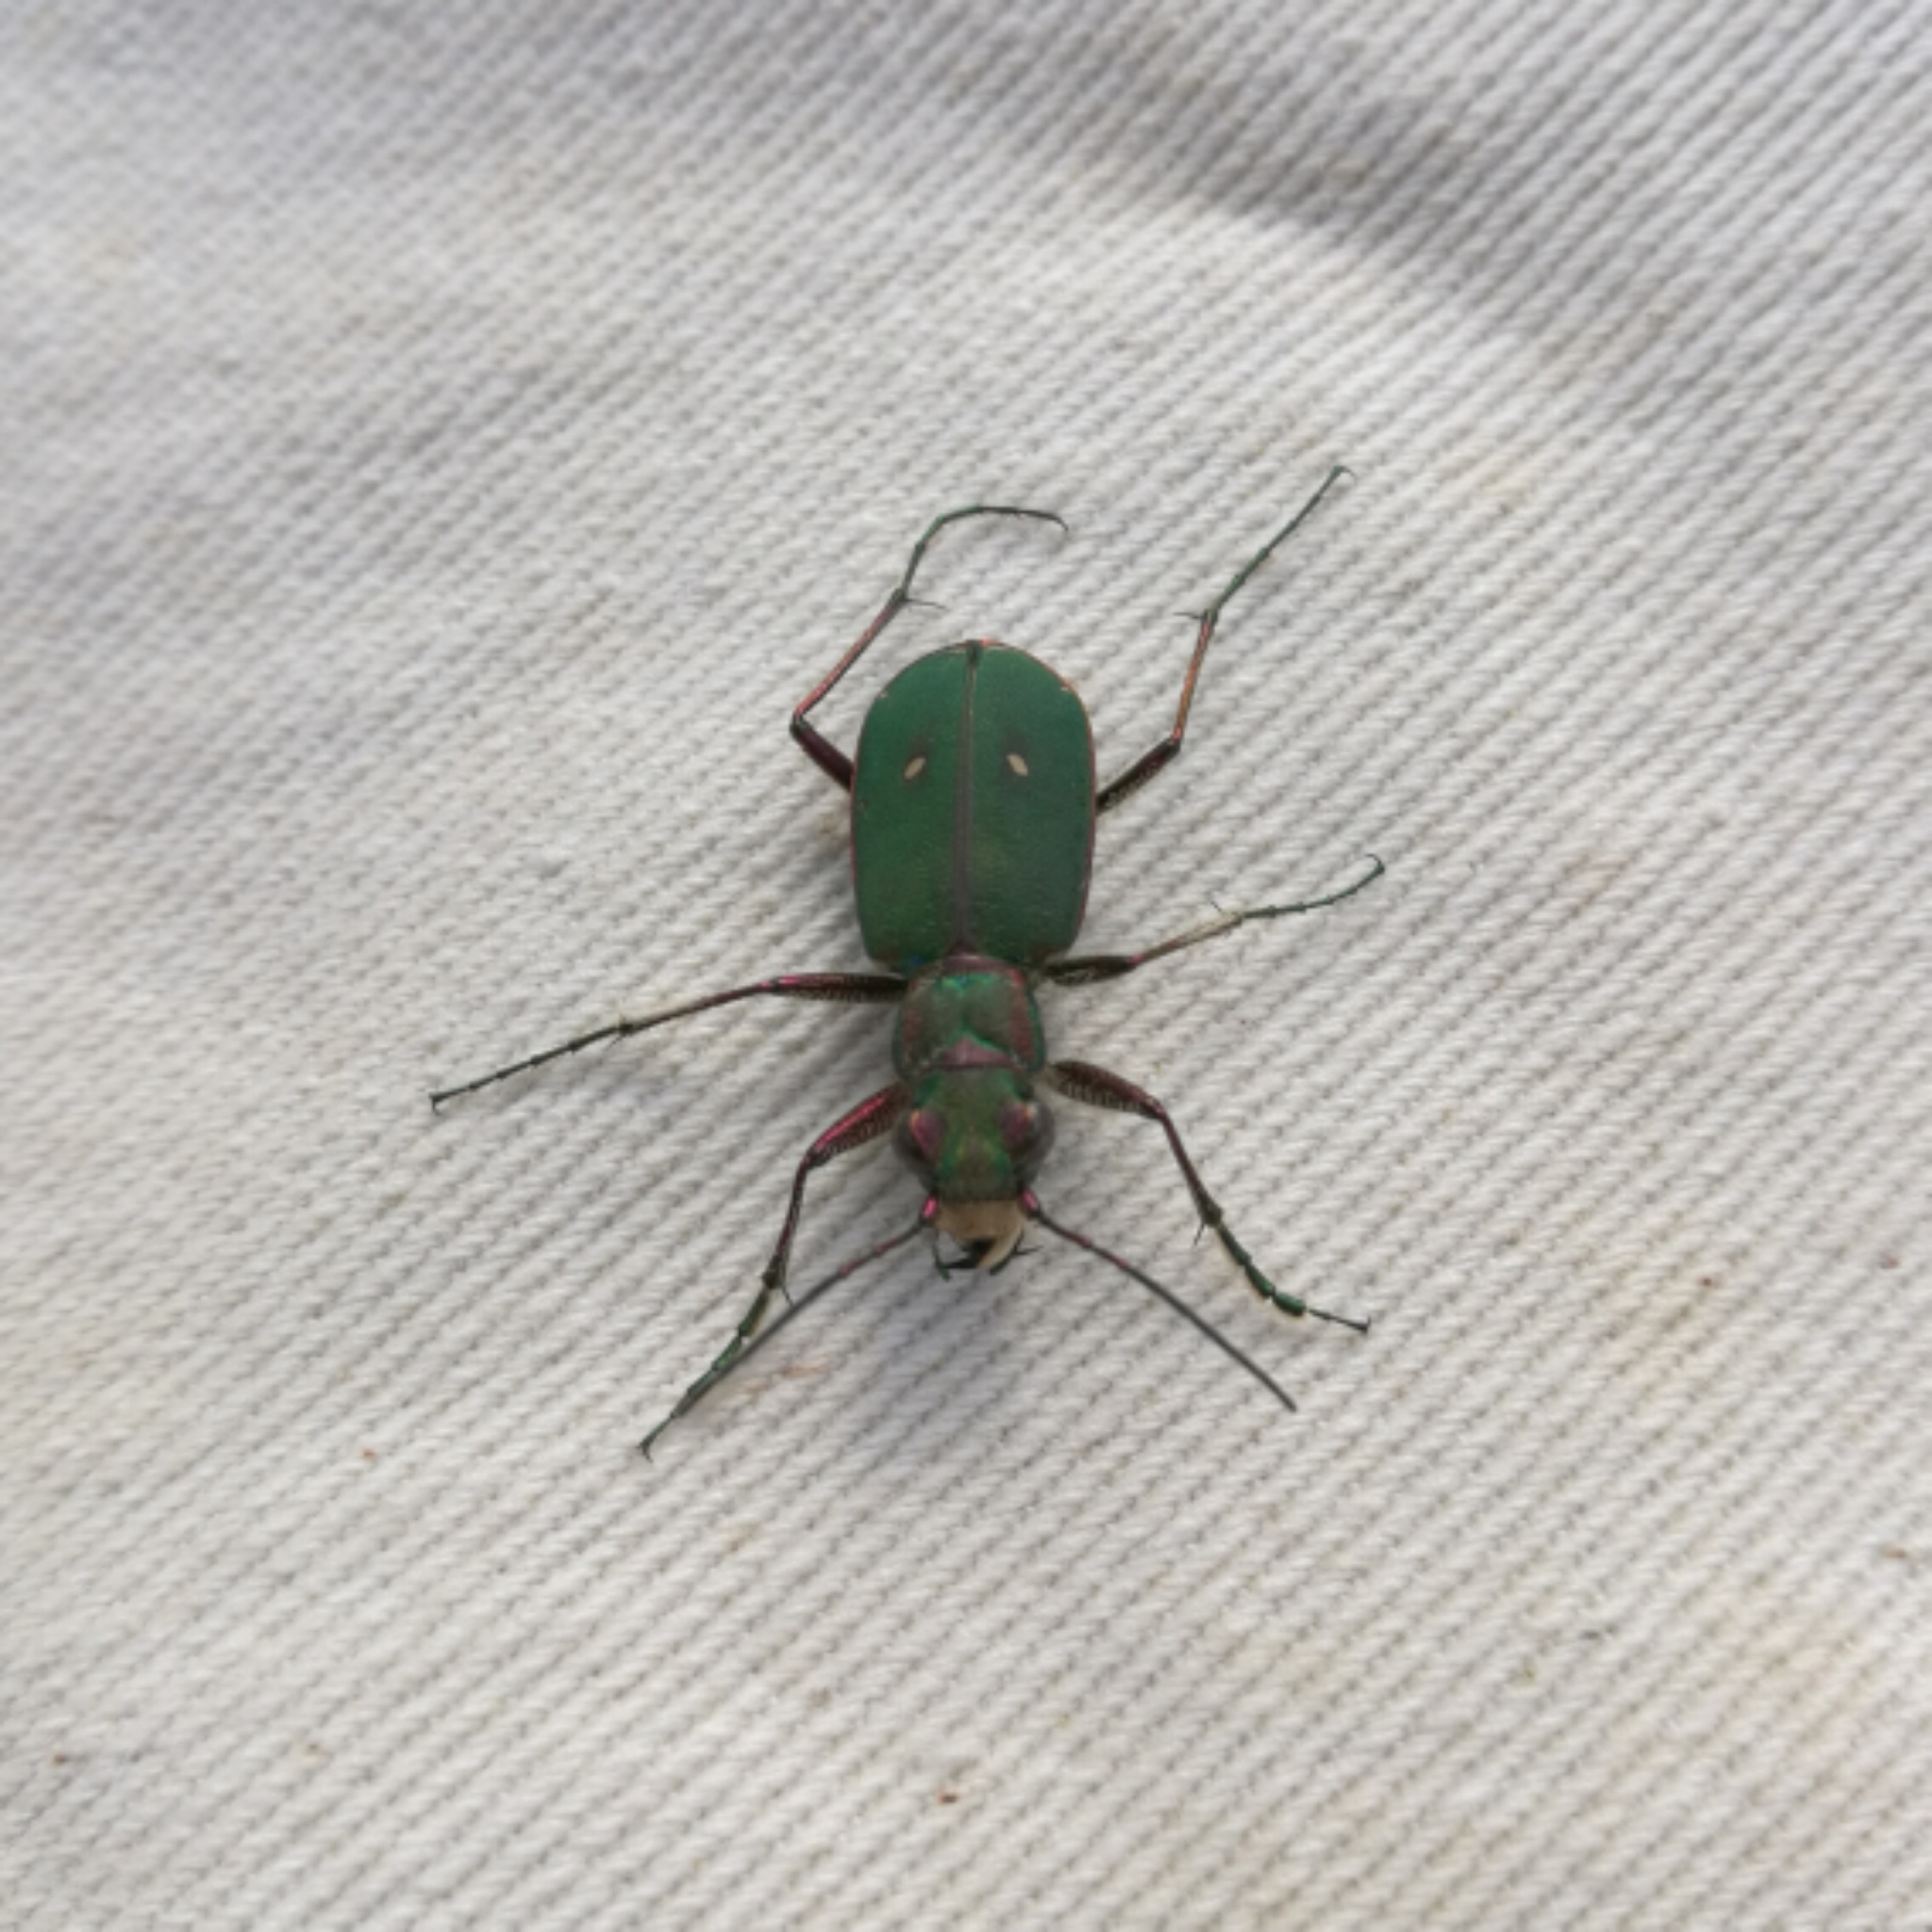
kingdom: Animalia
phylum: Arthropoda
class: Insecta
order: Coleoptera
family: Carabidae
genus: Cicindela
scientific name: Cicindela campestris
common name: Common tiger beetle
